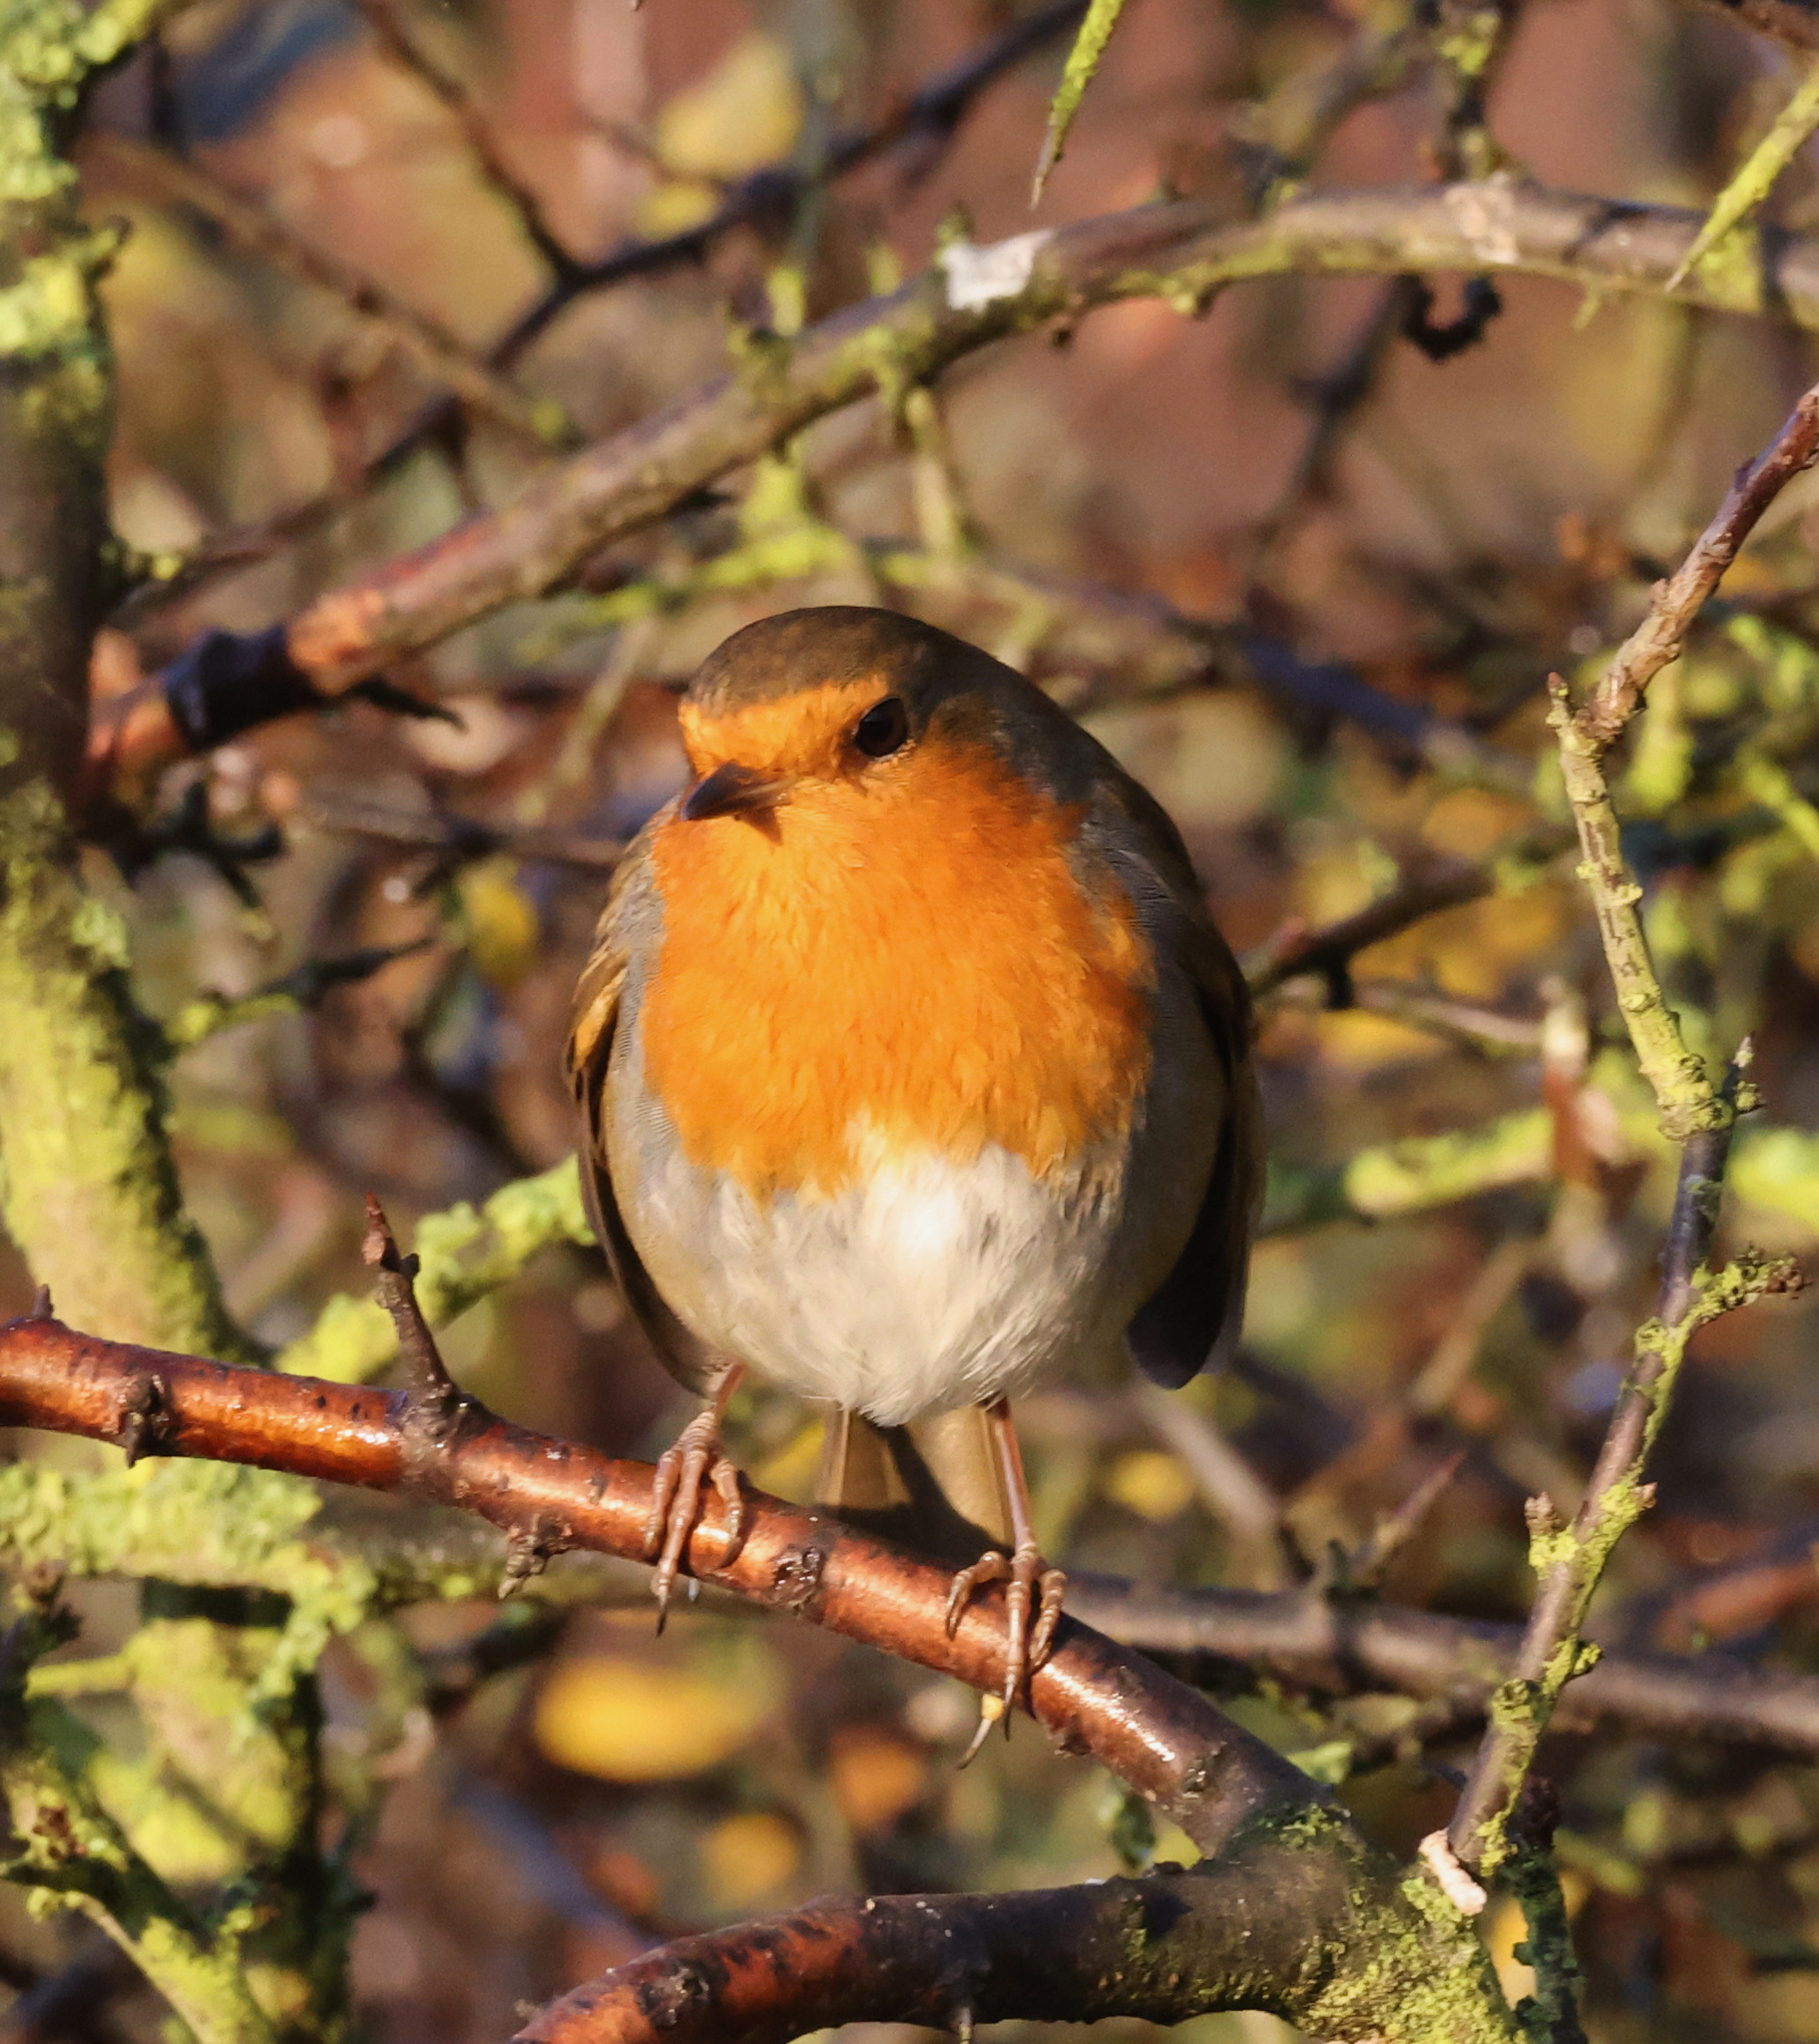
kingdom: Animalia
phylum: Chordata
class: Aves
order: Passeriformes
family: Muscicapidae
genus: Erithacus
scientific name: Erithacus rubecula
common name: European robin
